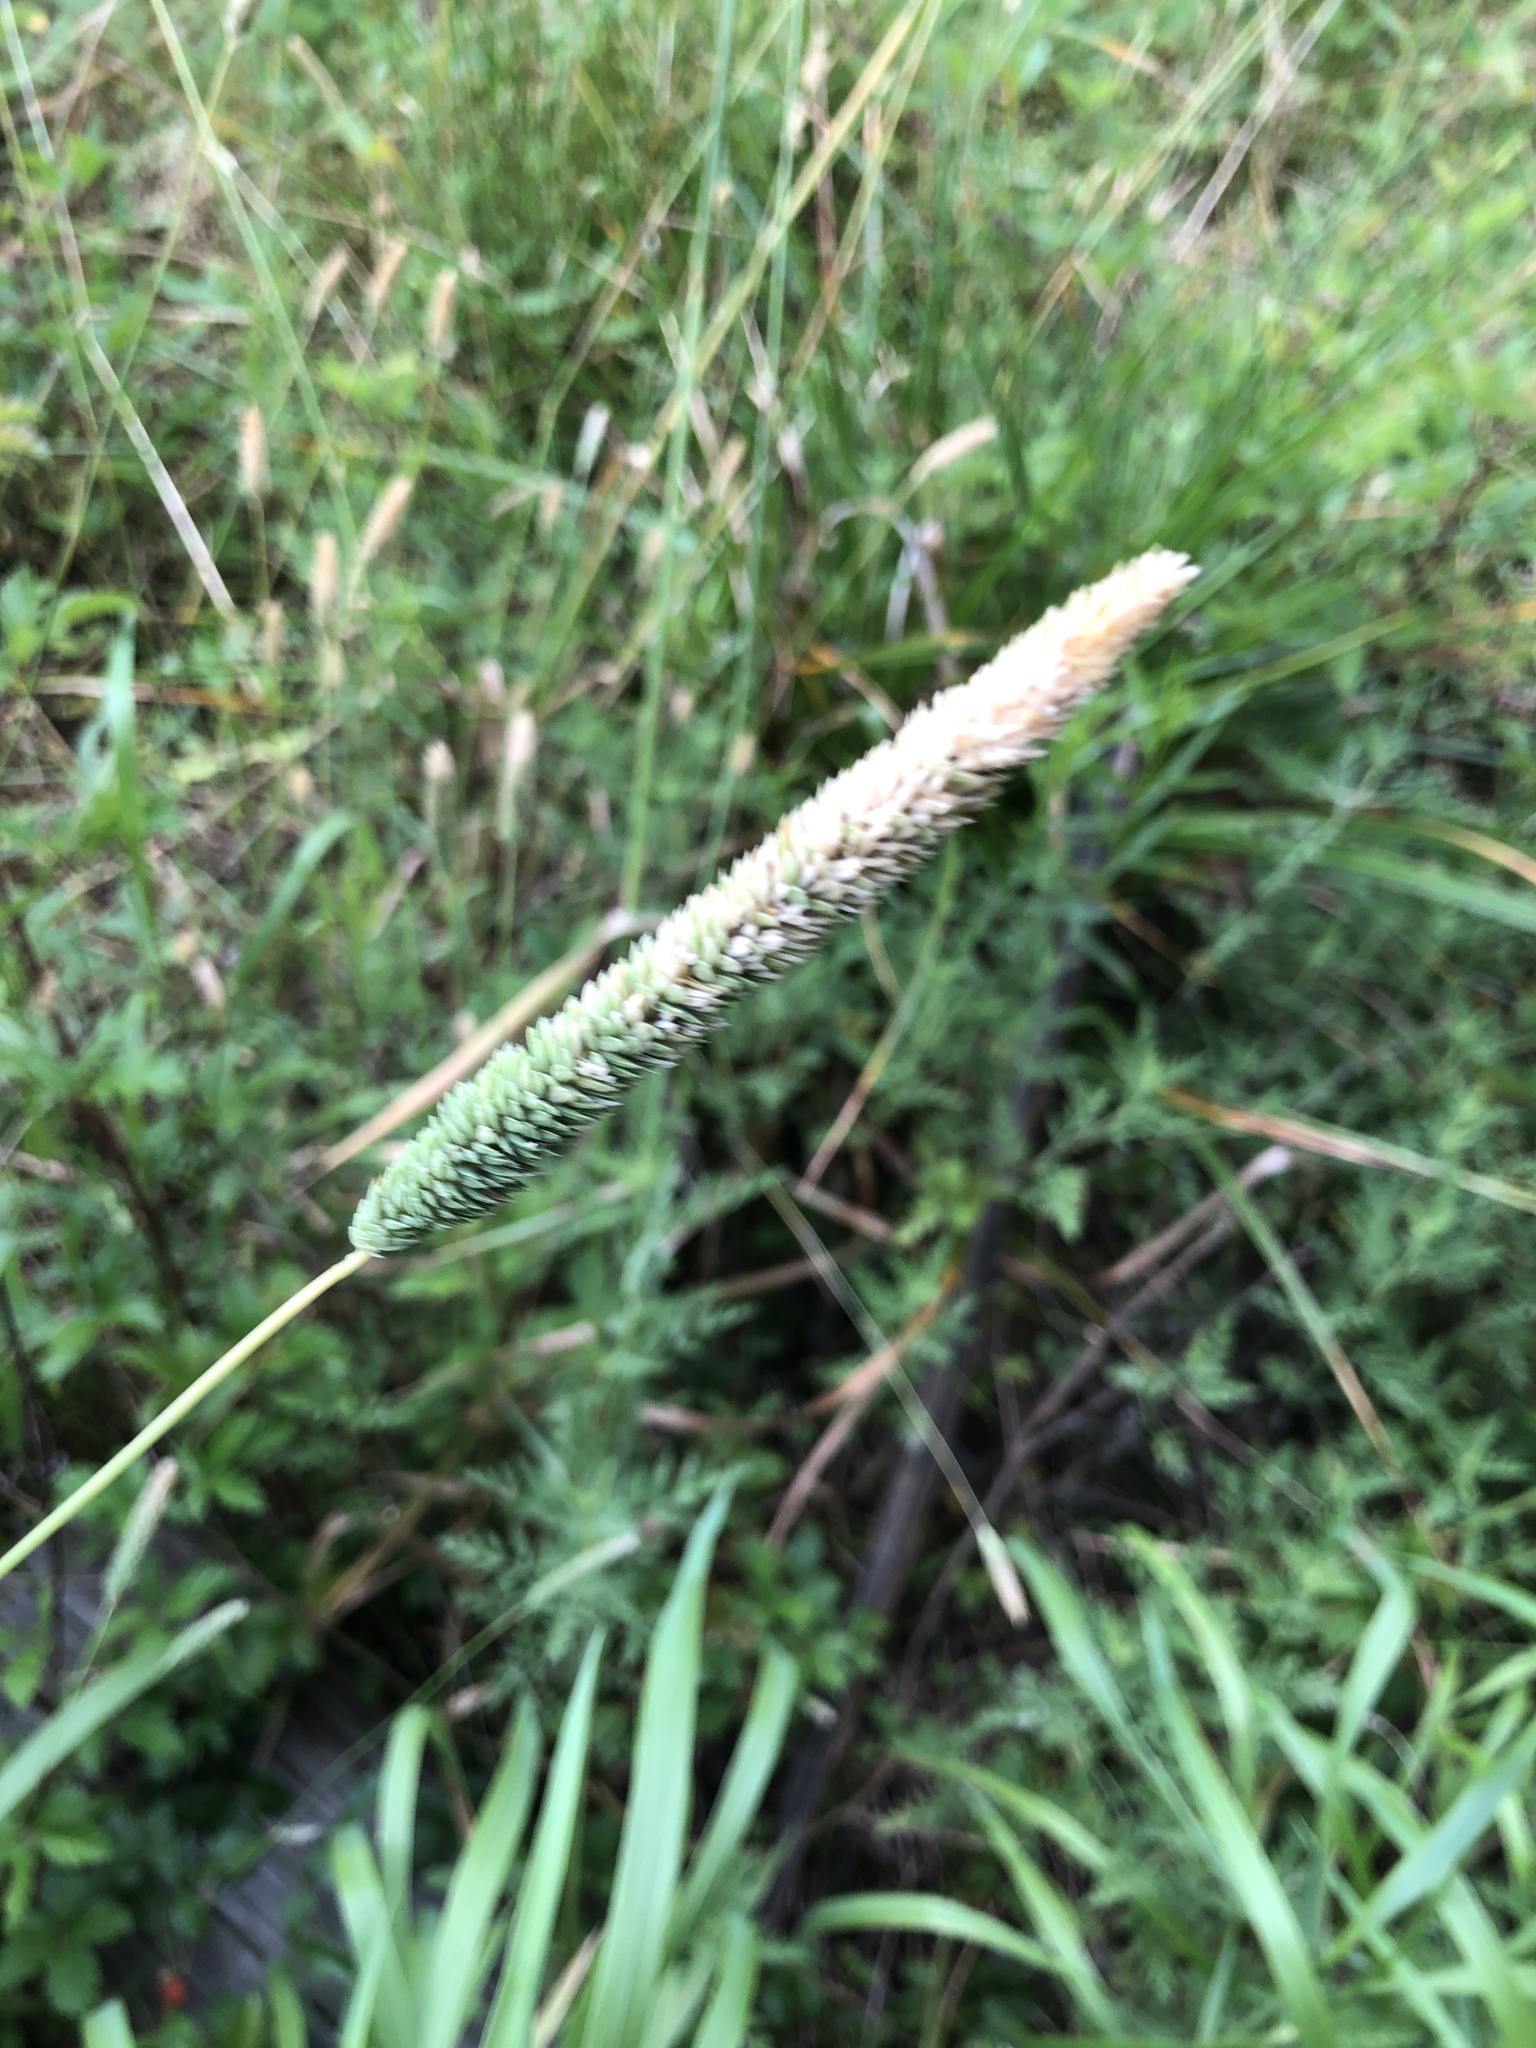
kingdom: Plantae
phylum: Tracheophyta
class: Liliopsida
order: Poales
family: Poaceae
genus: Phalaris
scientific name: Phalaris angusta
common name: Narrow canary grass
